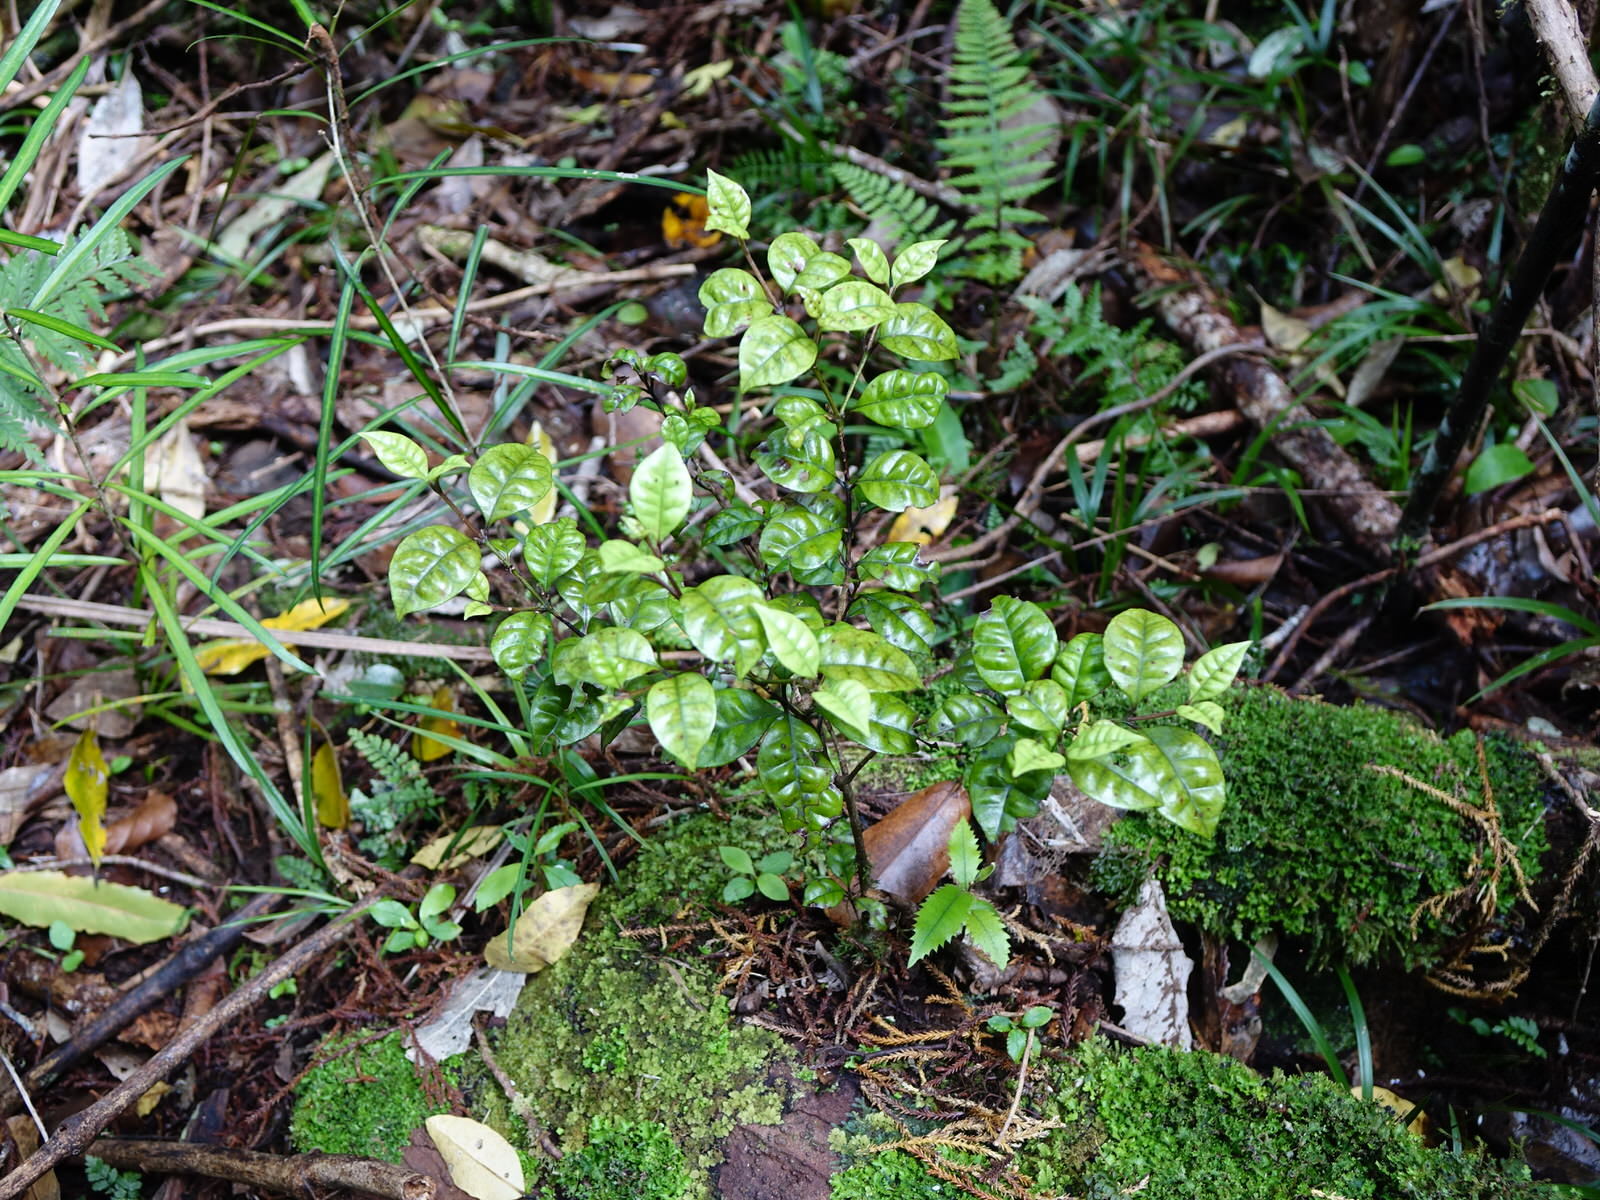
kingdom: Plantae
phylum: Tracheophyta
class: Magnoliopsida
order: Myrtales
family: Myrtaceae
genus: Lophomyrtus
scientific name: Lophomyrtus bullata
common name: Rama rama
